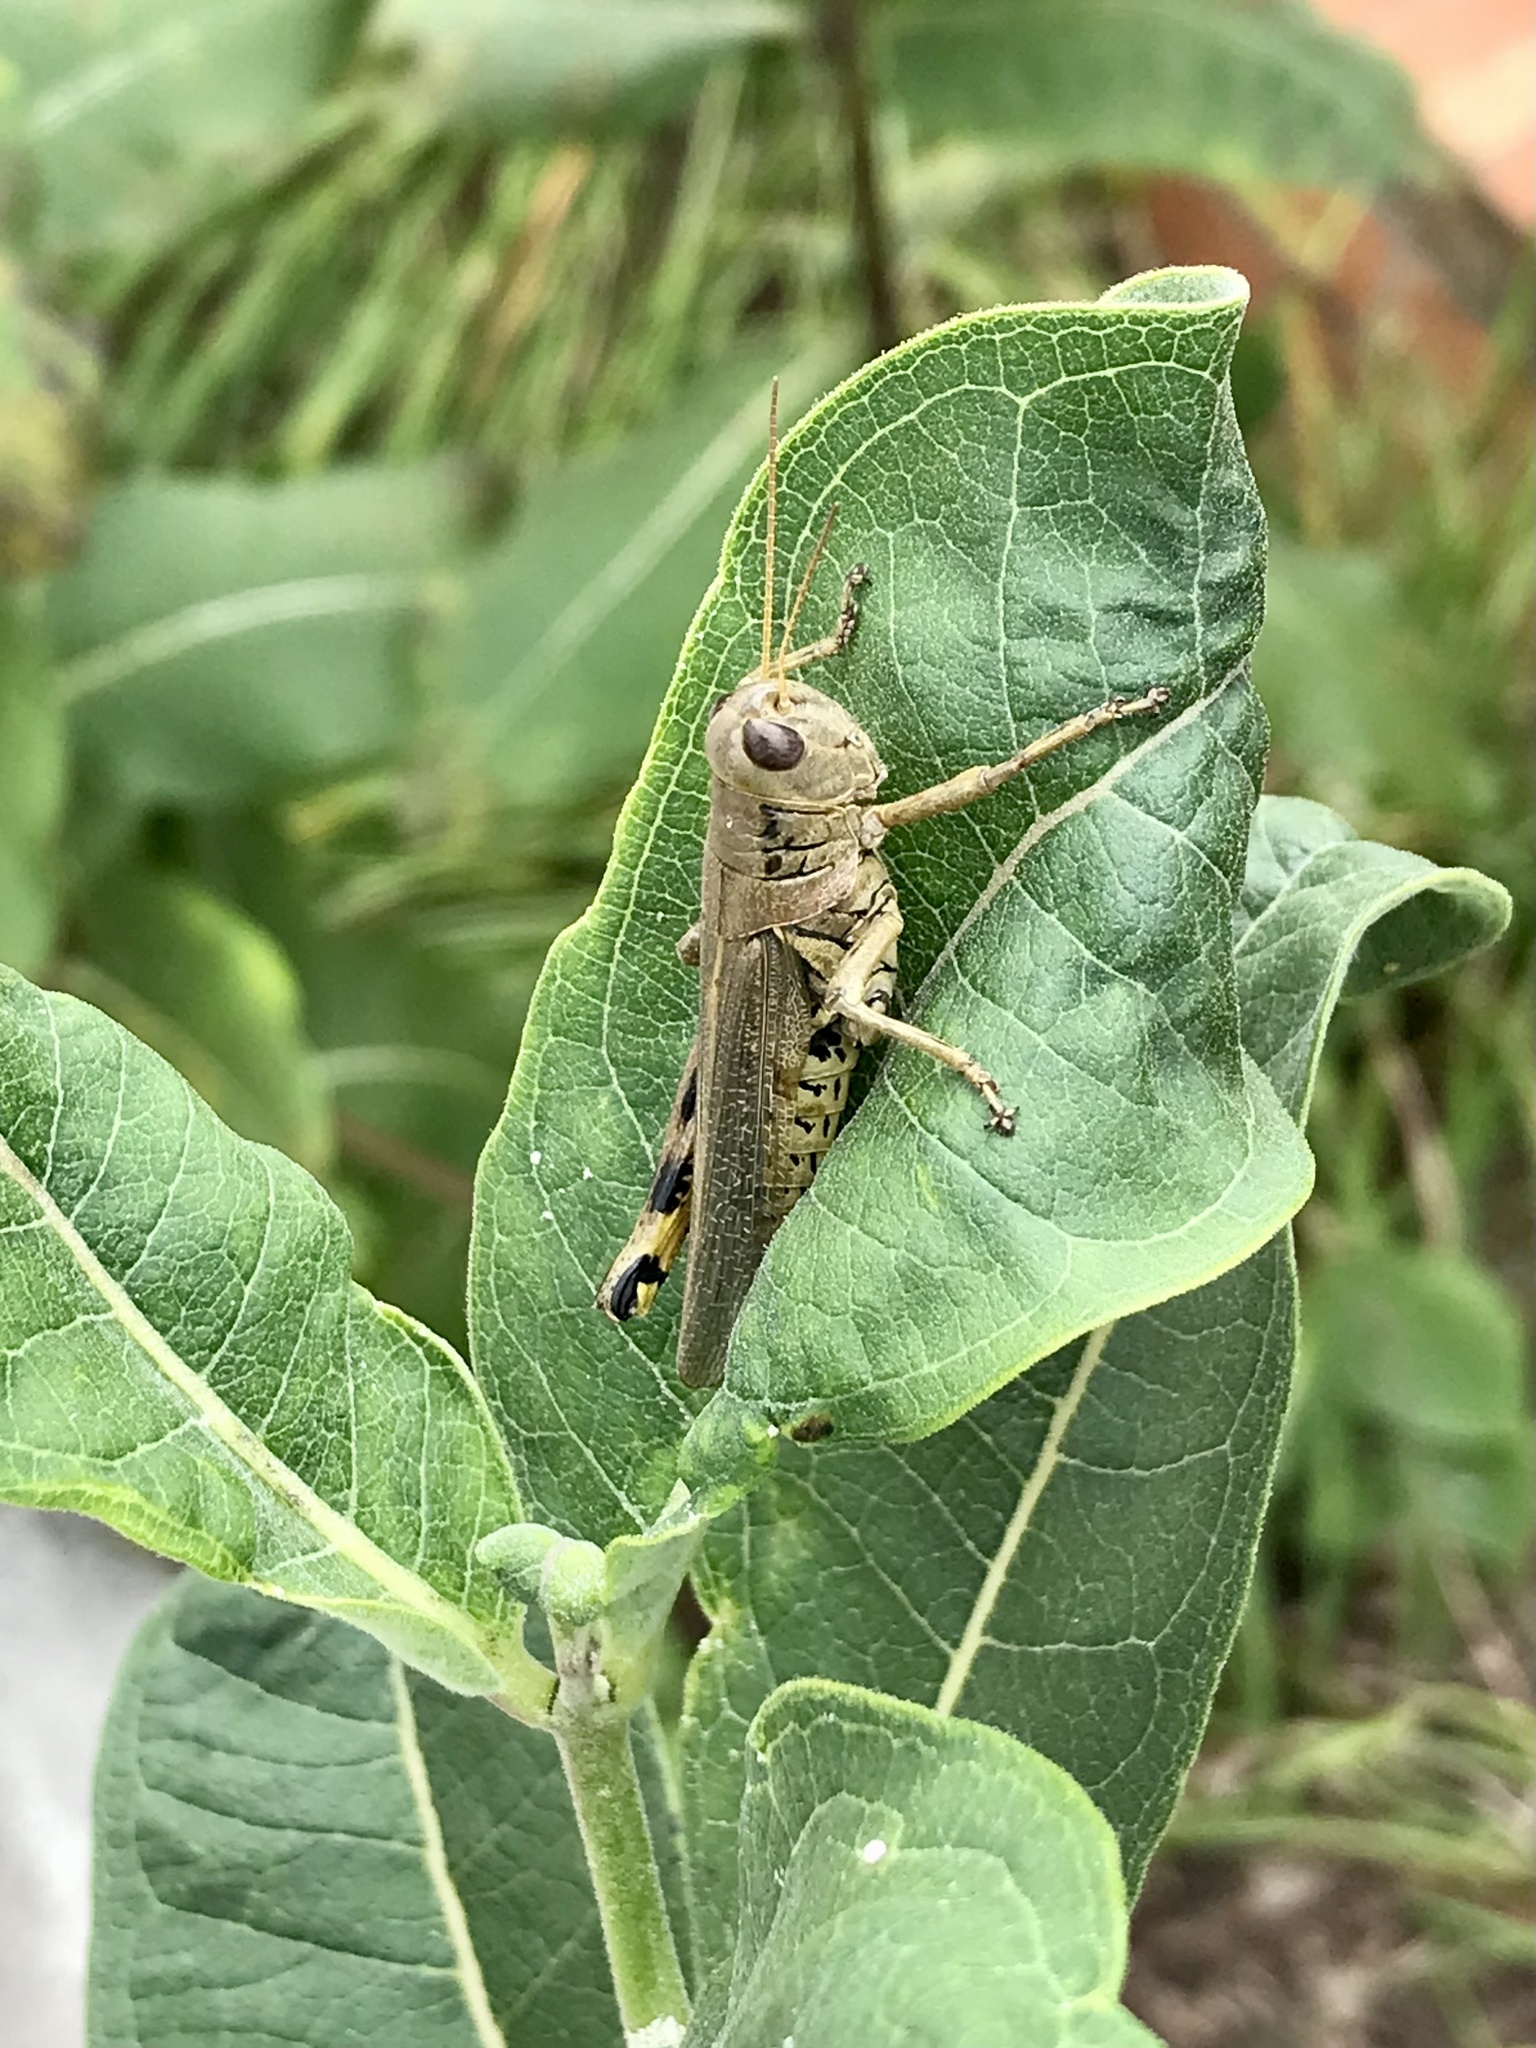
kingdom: Animalia
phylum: Arthropoda
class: Insecta
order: Orthoptera
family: Acrididae
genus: Melanoplus
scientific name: Melanoplus differentialis
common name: Differential grasshopper
